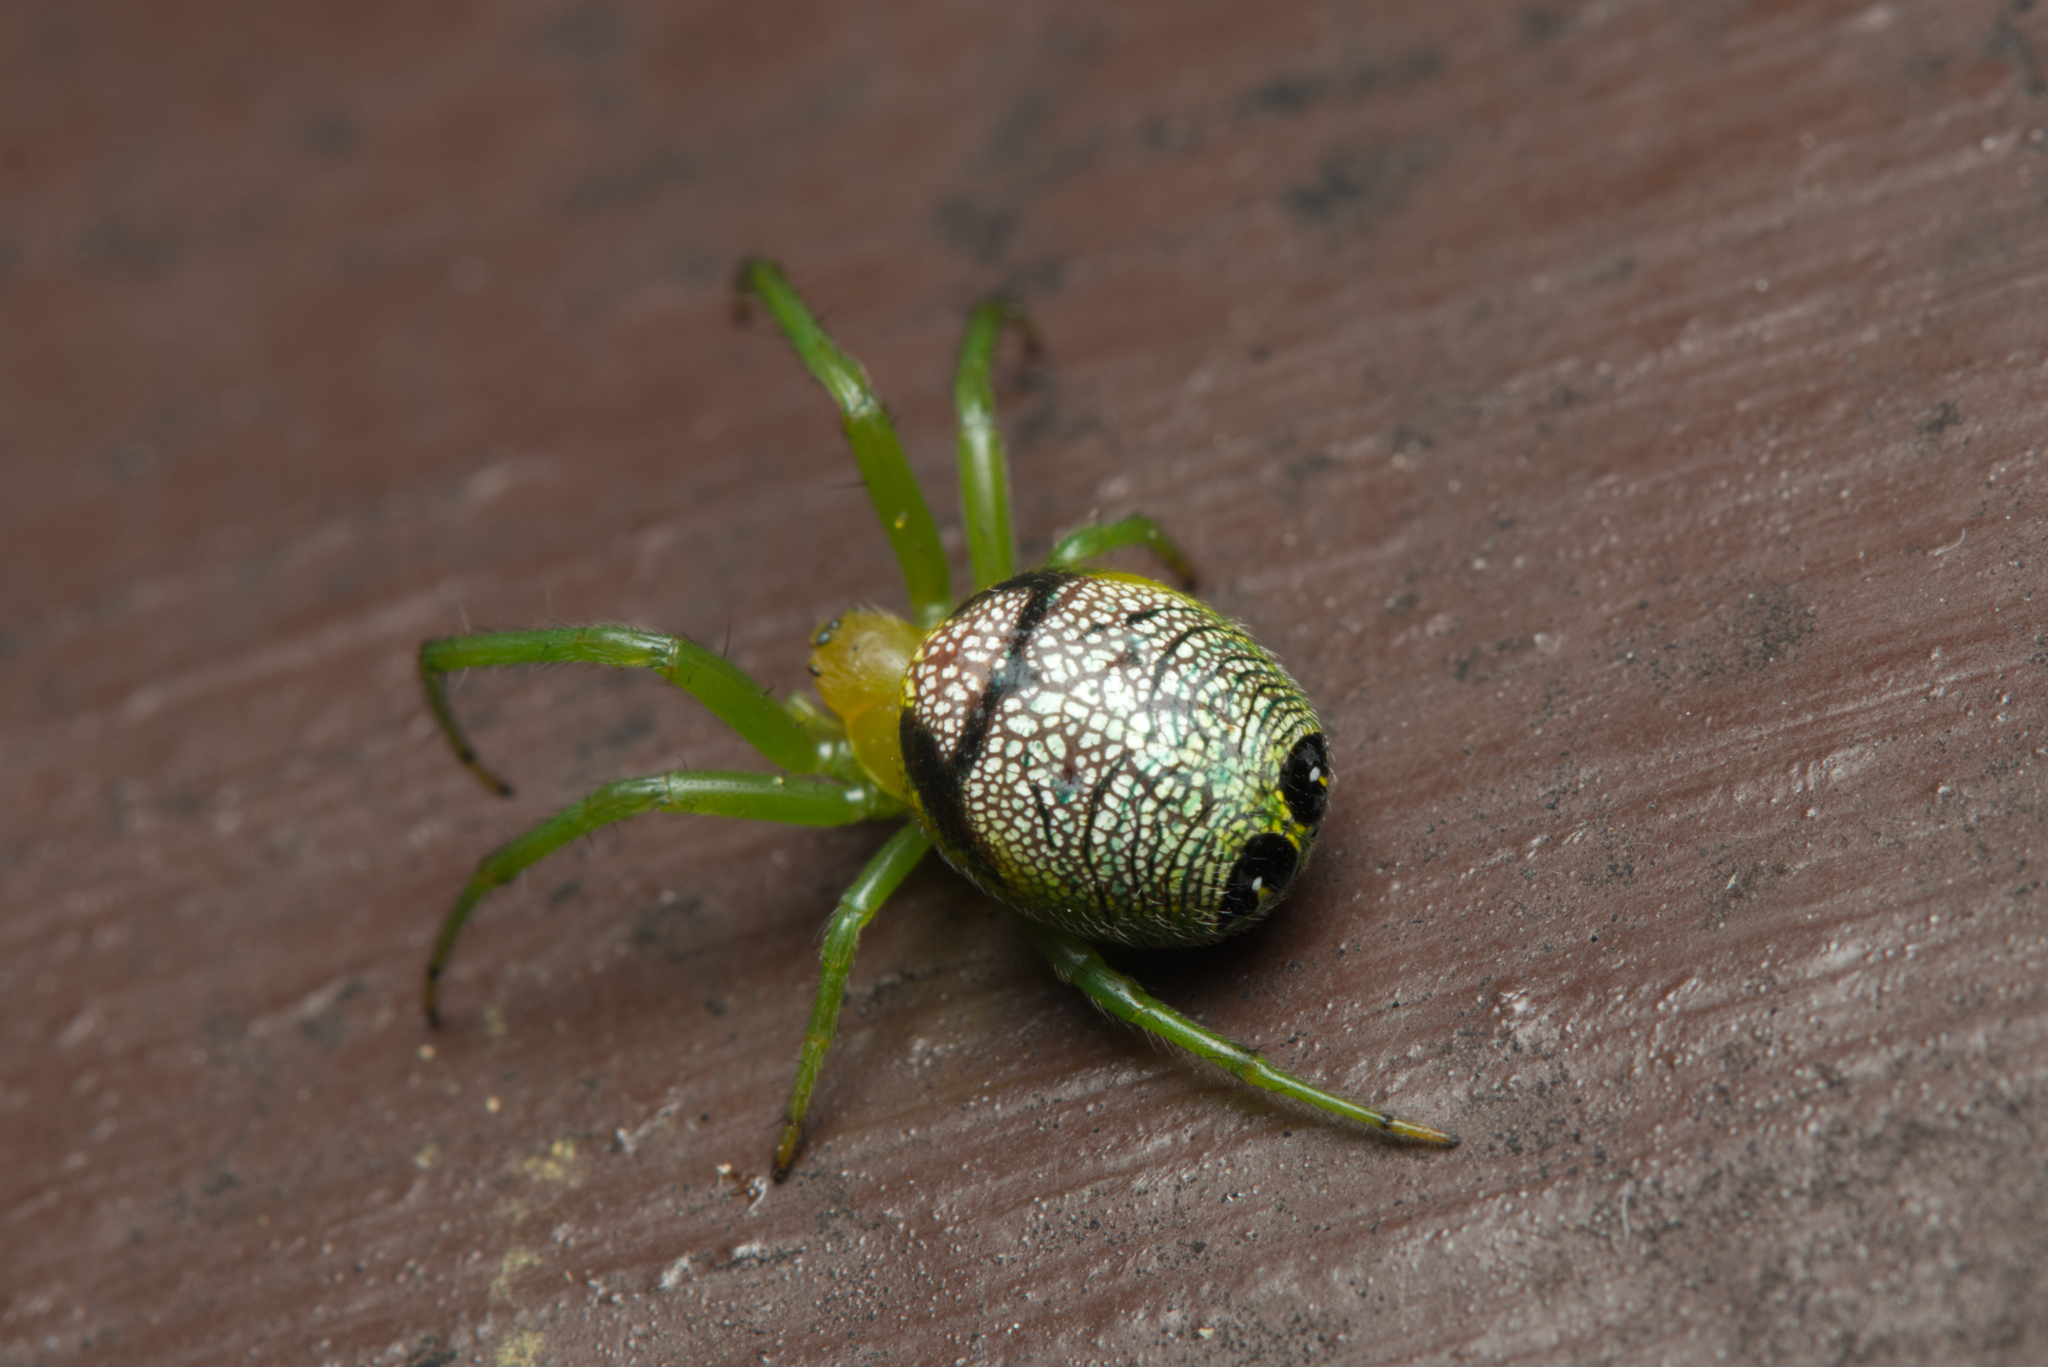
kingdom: Animalia
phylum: Arthropoda
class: Arachnida
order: Araneae
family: Araneidae
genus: Bijoaraneus
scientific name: Bijoaraneus praesignis
